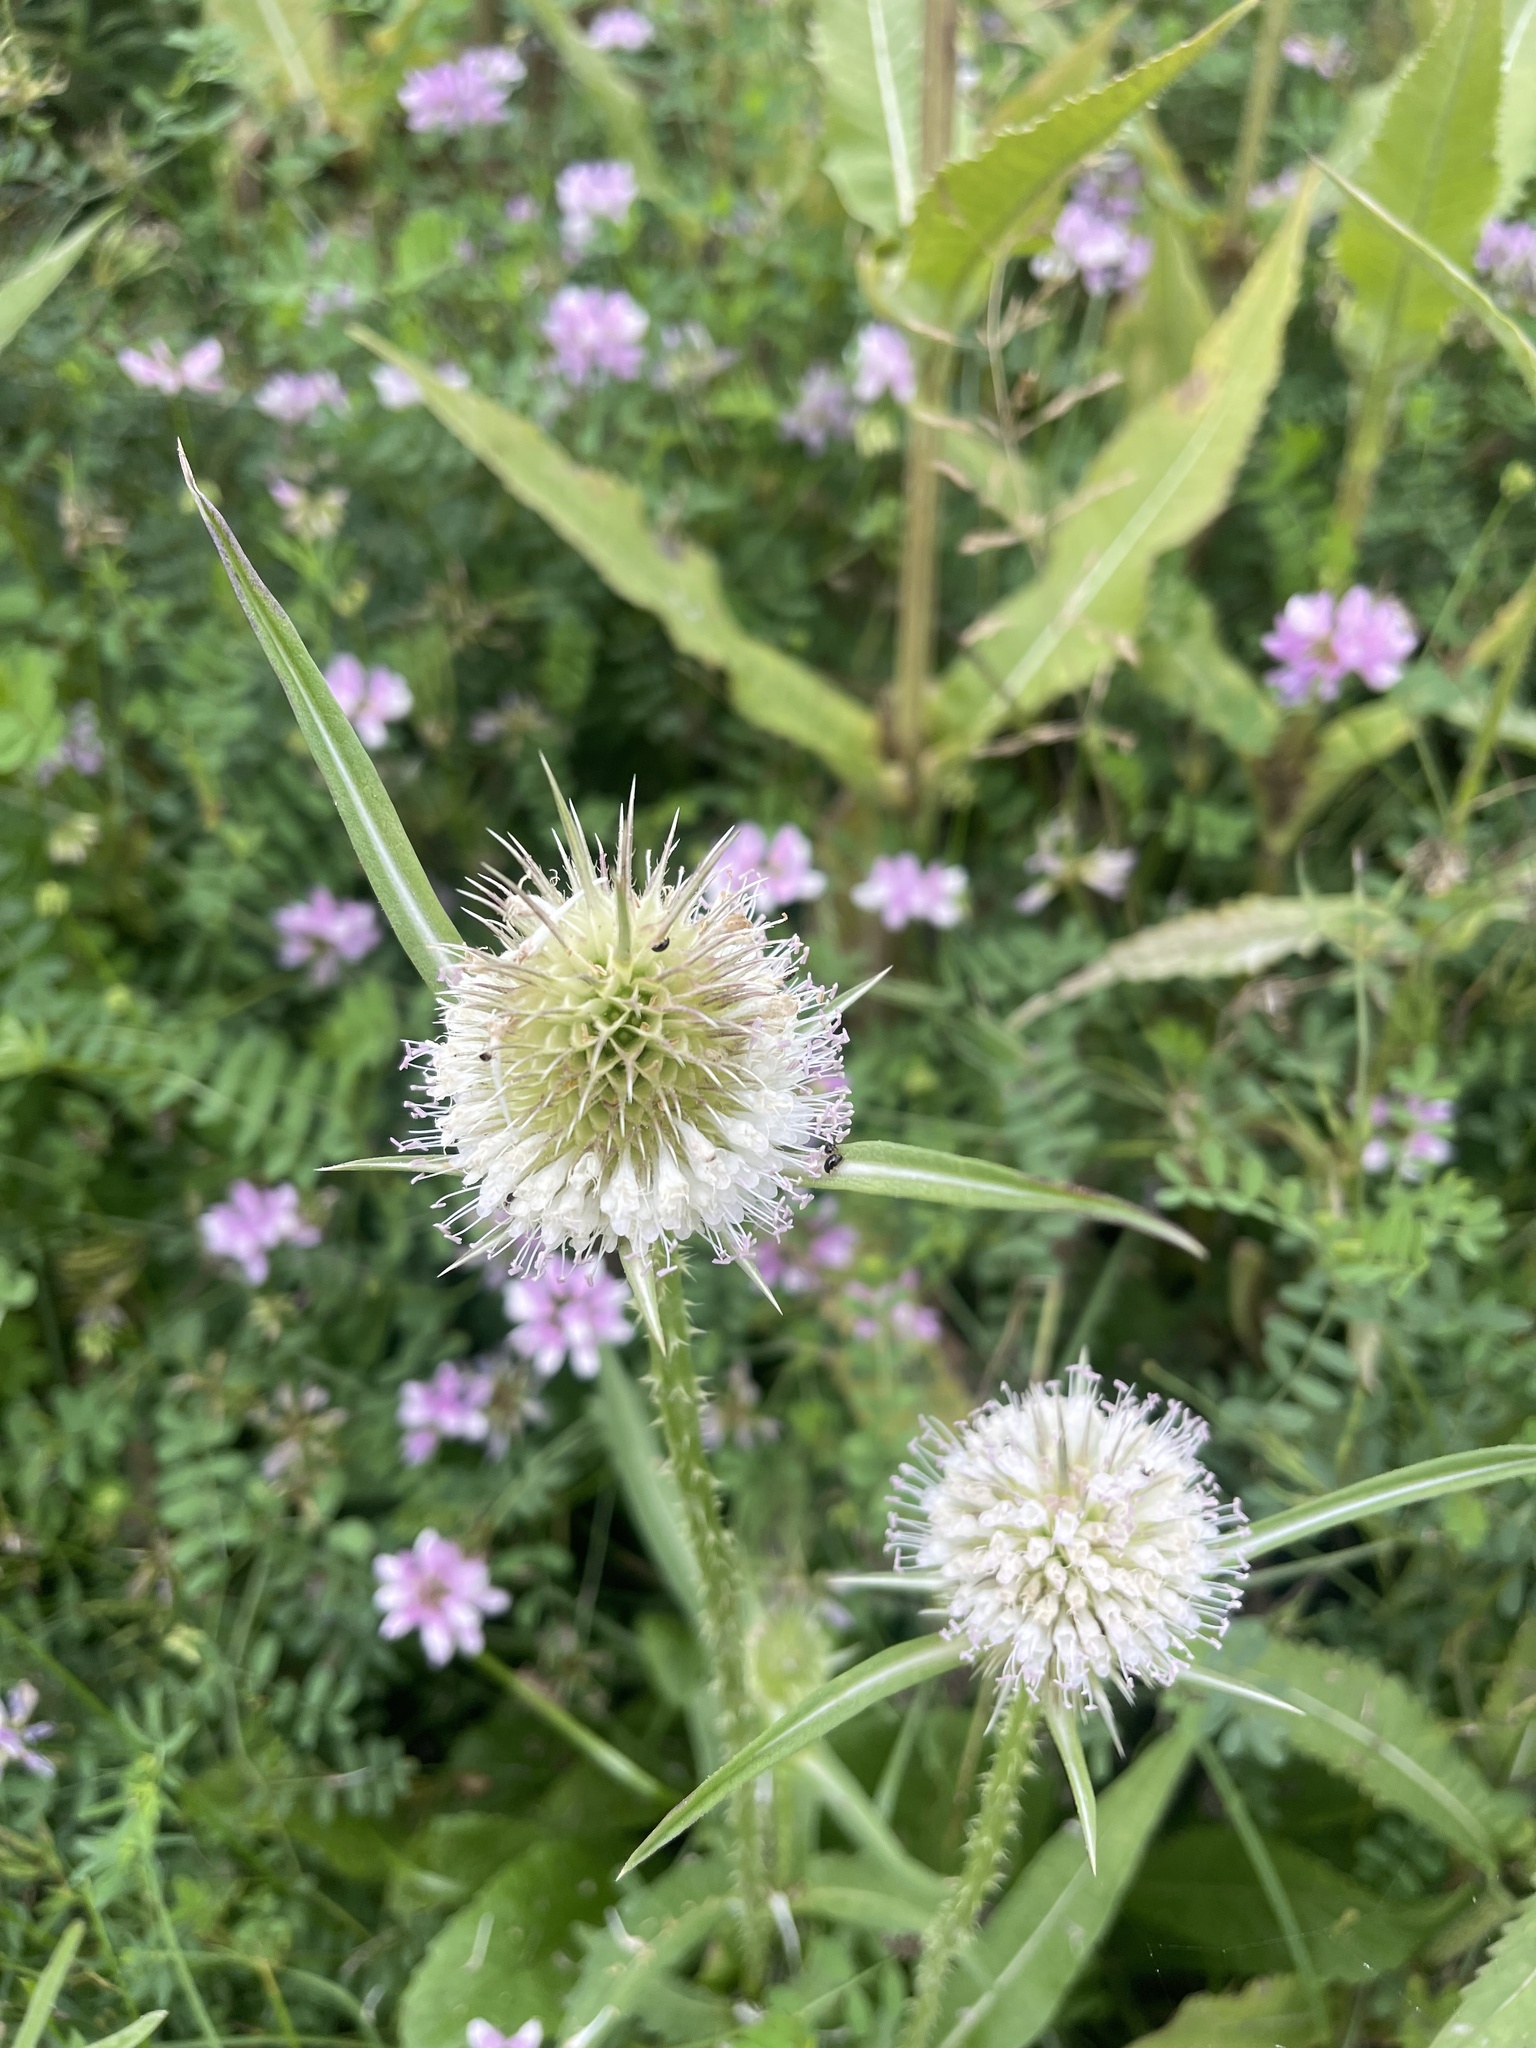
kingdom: Plantae
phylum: Tracheophyta
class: Magnoliopsida
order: Dipsacales
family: Caprifoliaceae
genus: Dipsacus
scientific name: Dipsacus laciniatus
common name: Cut-leaved teasel
